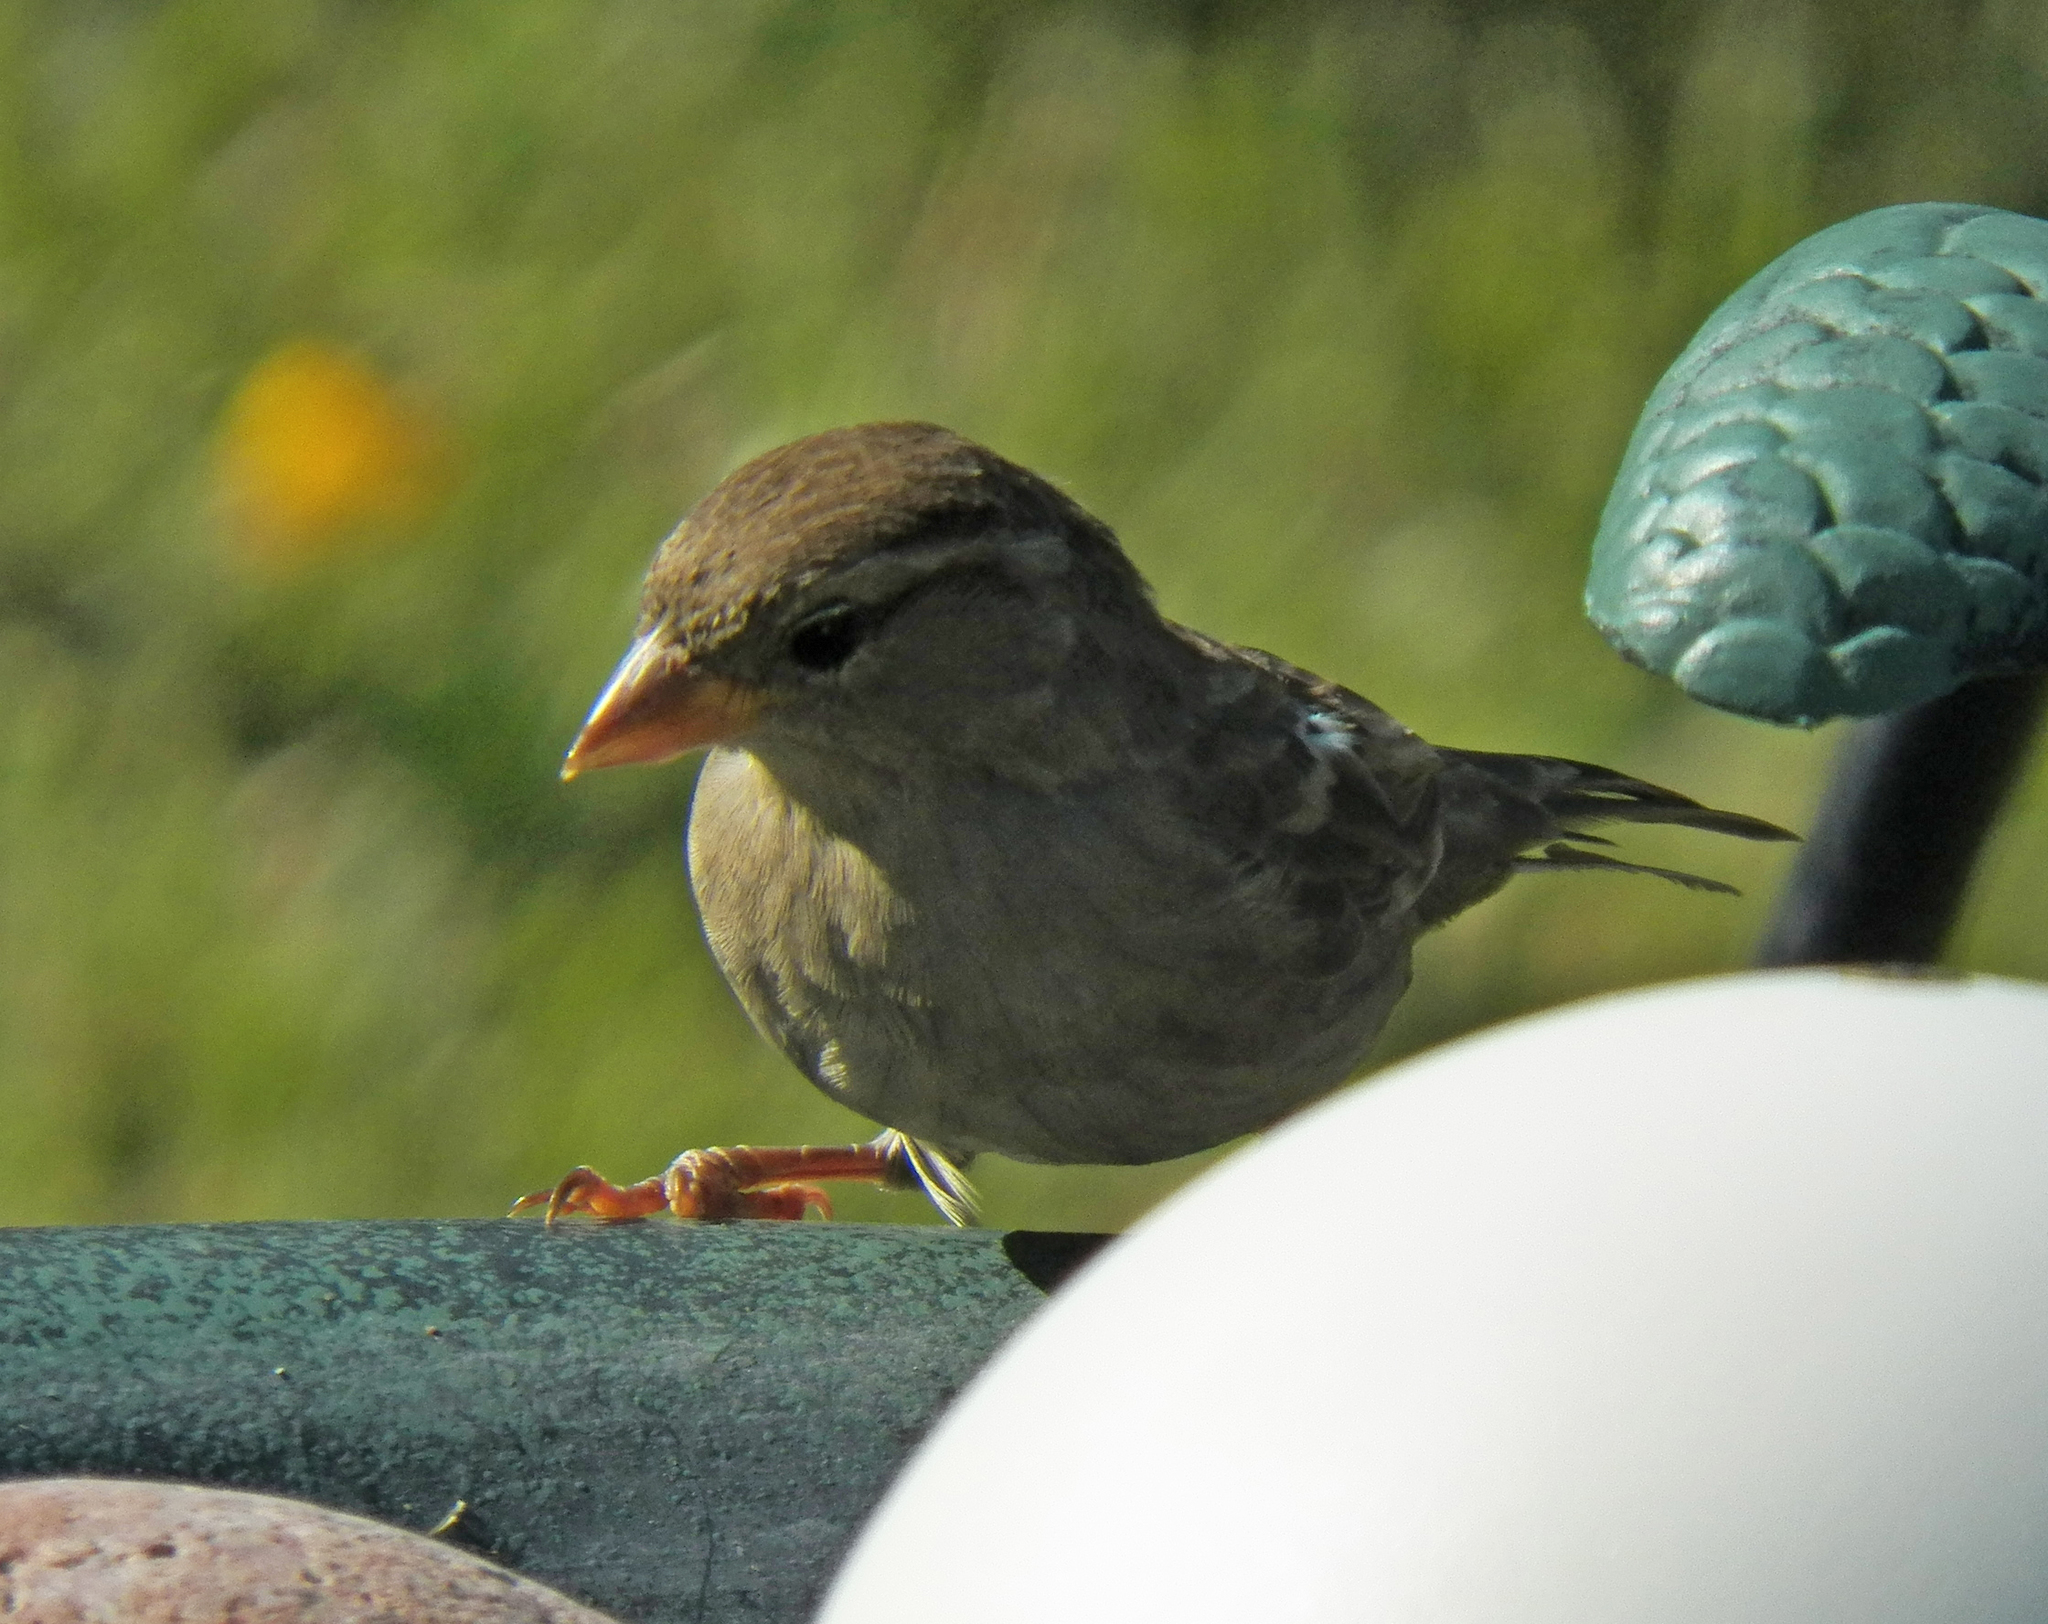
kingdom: Animalia
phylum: Chordata
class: Aves
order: Passeriformes
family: Passeridae
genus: Passer
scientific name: Passer domesticus
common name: House sparrow
